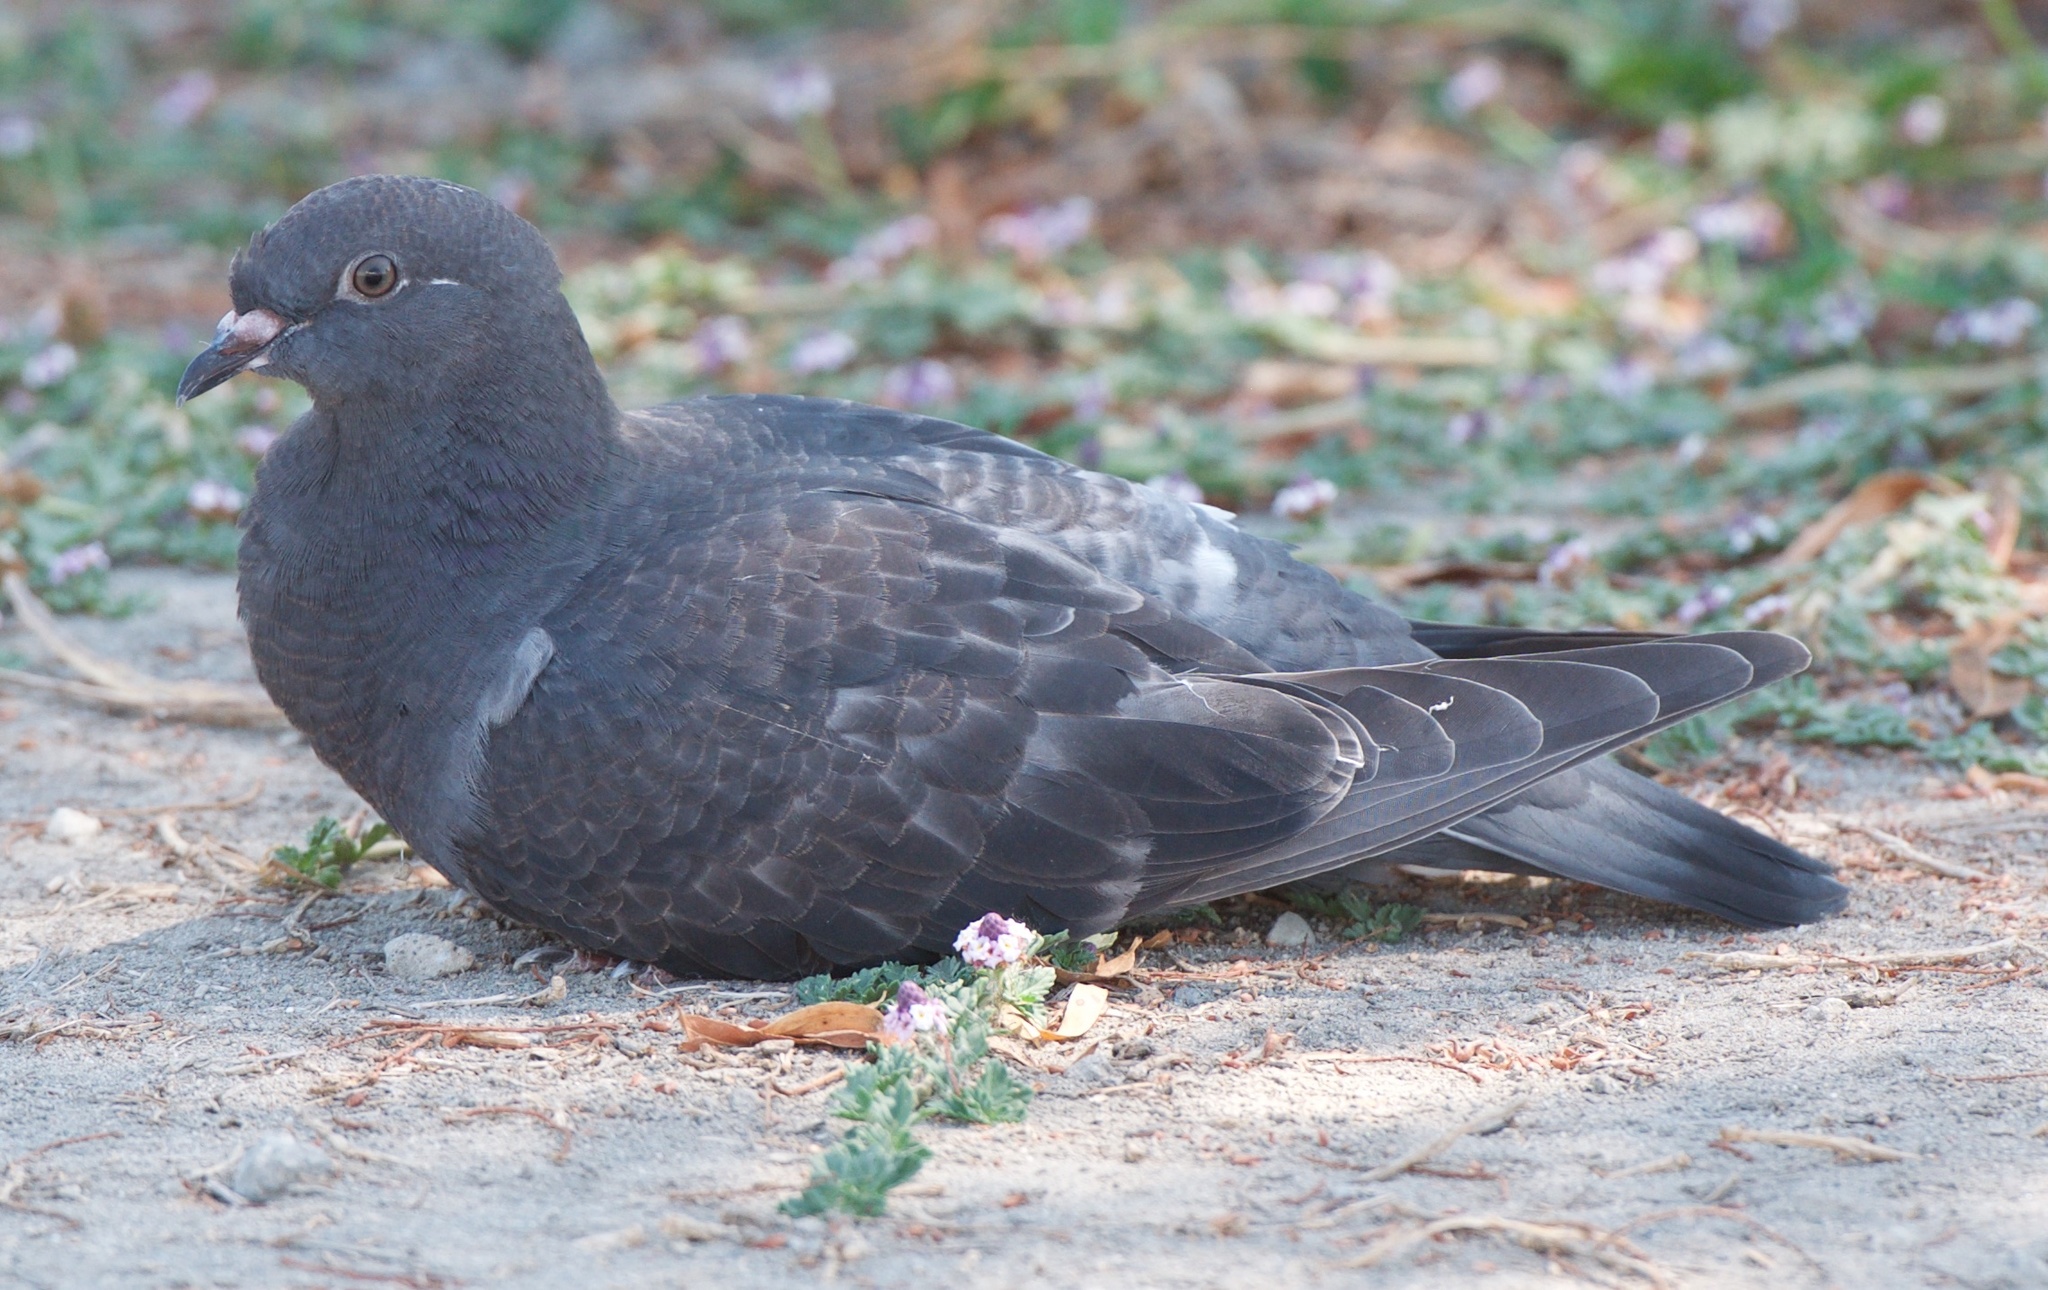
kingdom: Animalia
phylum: Chordata
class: Aves
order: Columbiformes
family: Columbidae
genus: Columba
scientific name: Columba livia
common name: Rock pigeon
